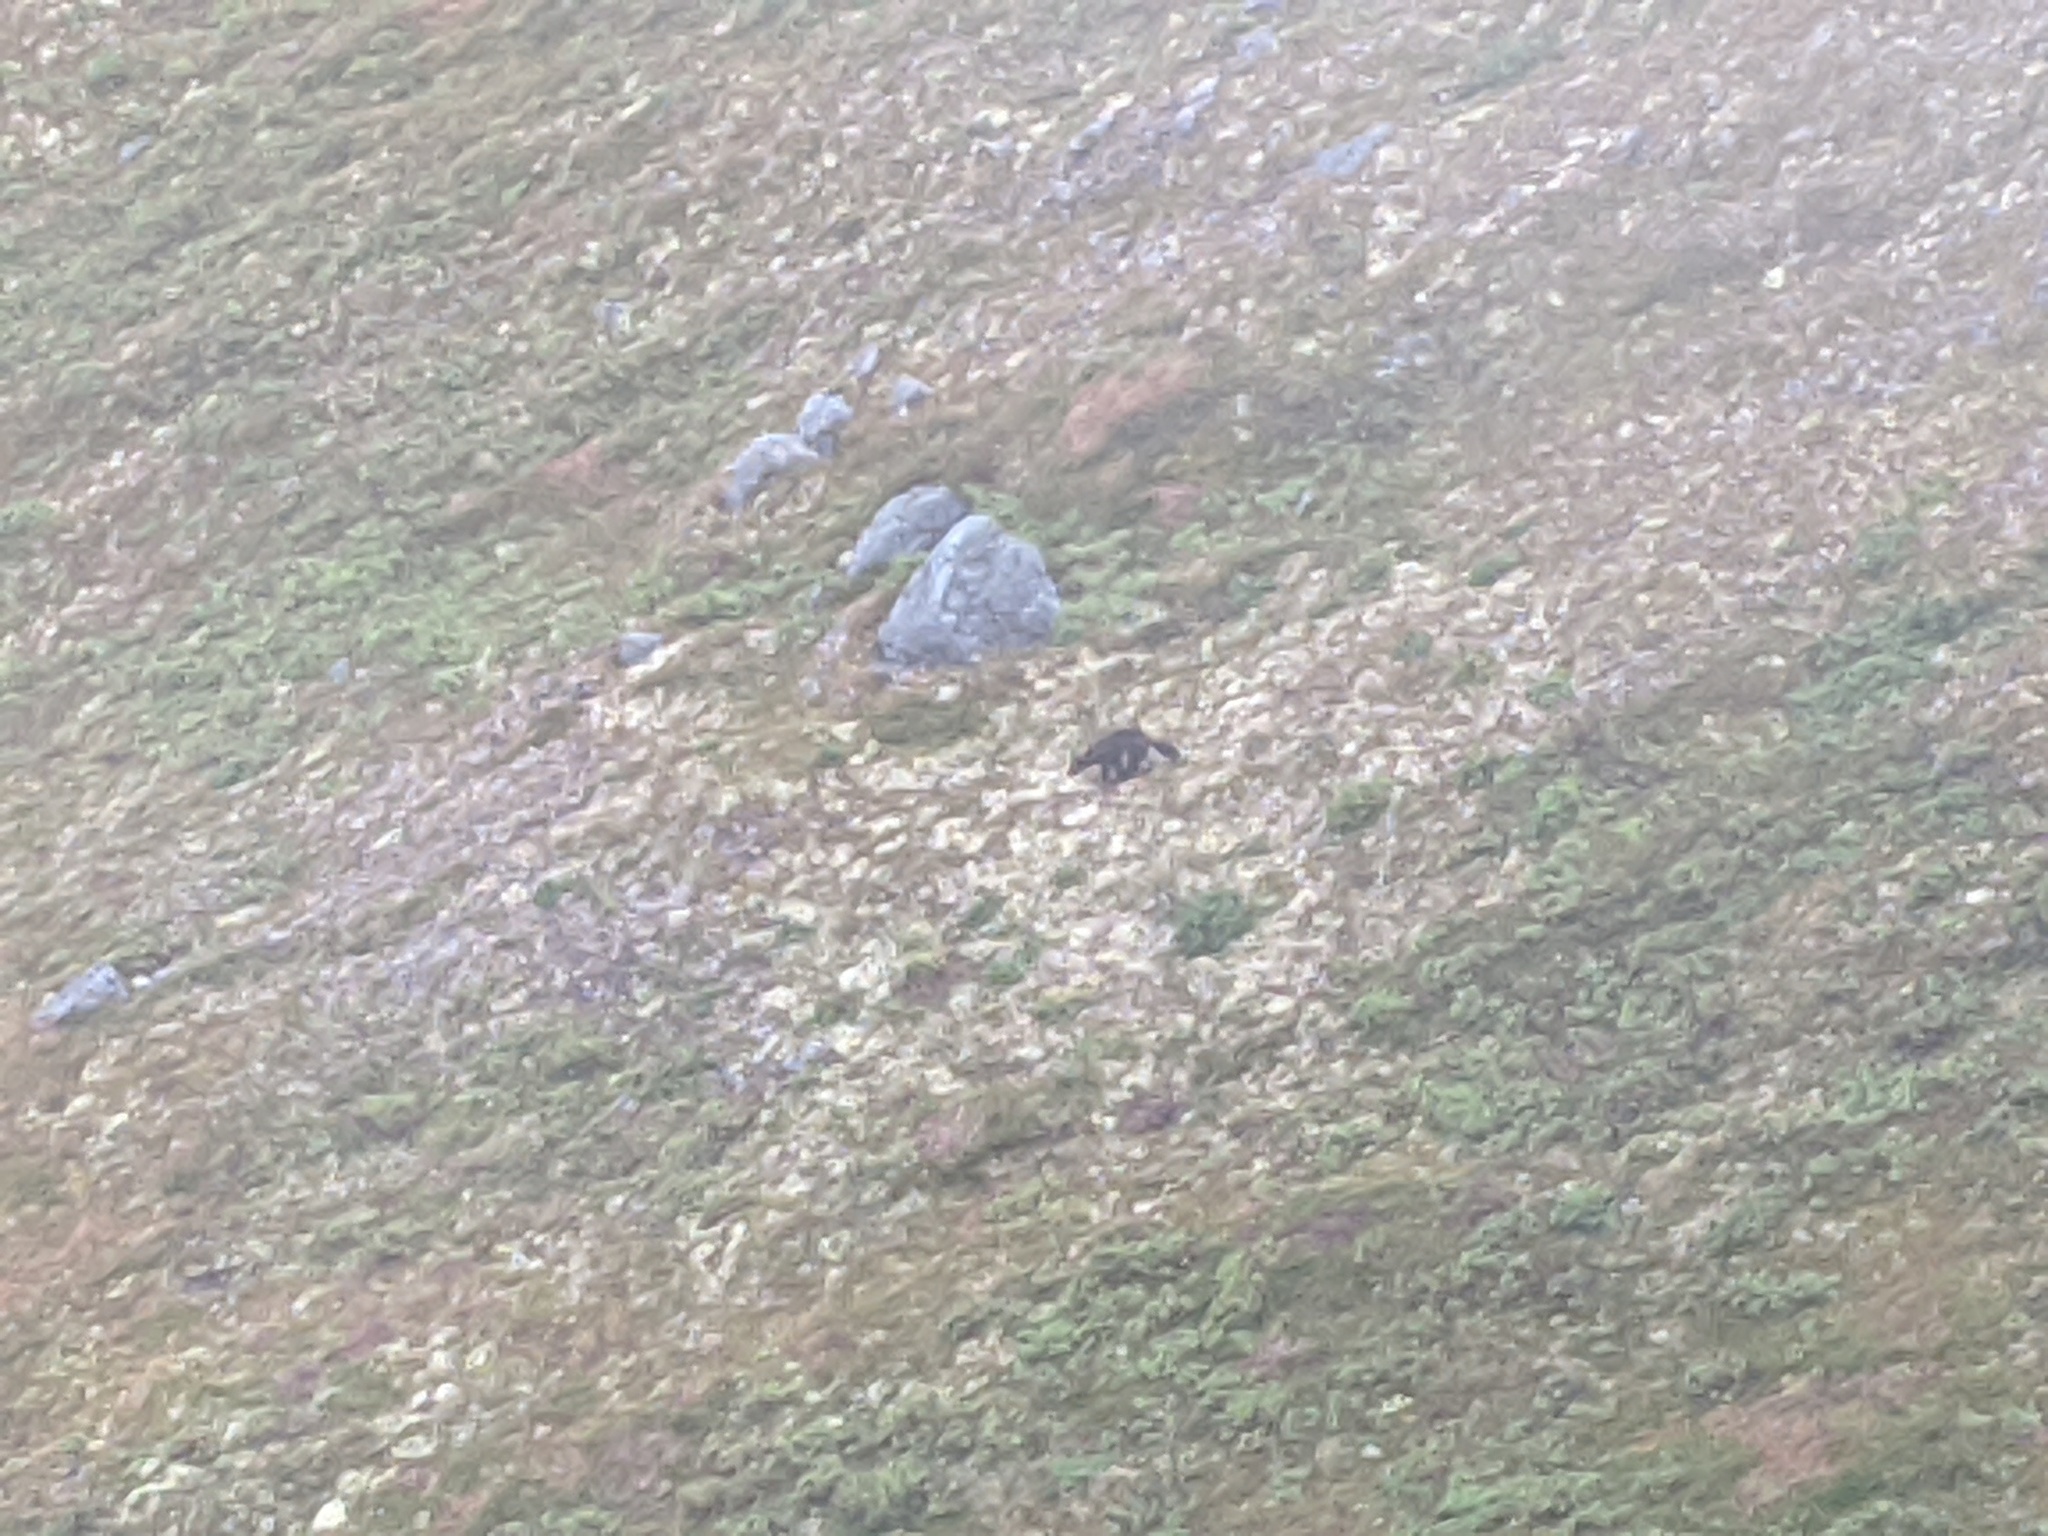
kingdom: Animalia
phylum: Chordata
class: Mammalia
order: Carnivora
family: Mustelidae
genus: Gulo
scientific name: Gulo gulo
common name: Wolverine
